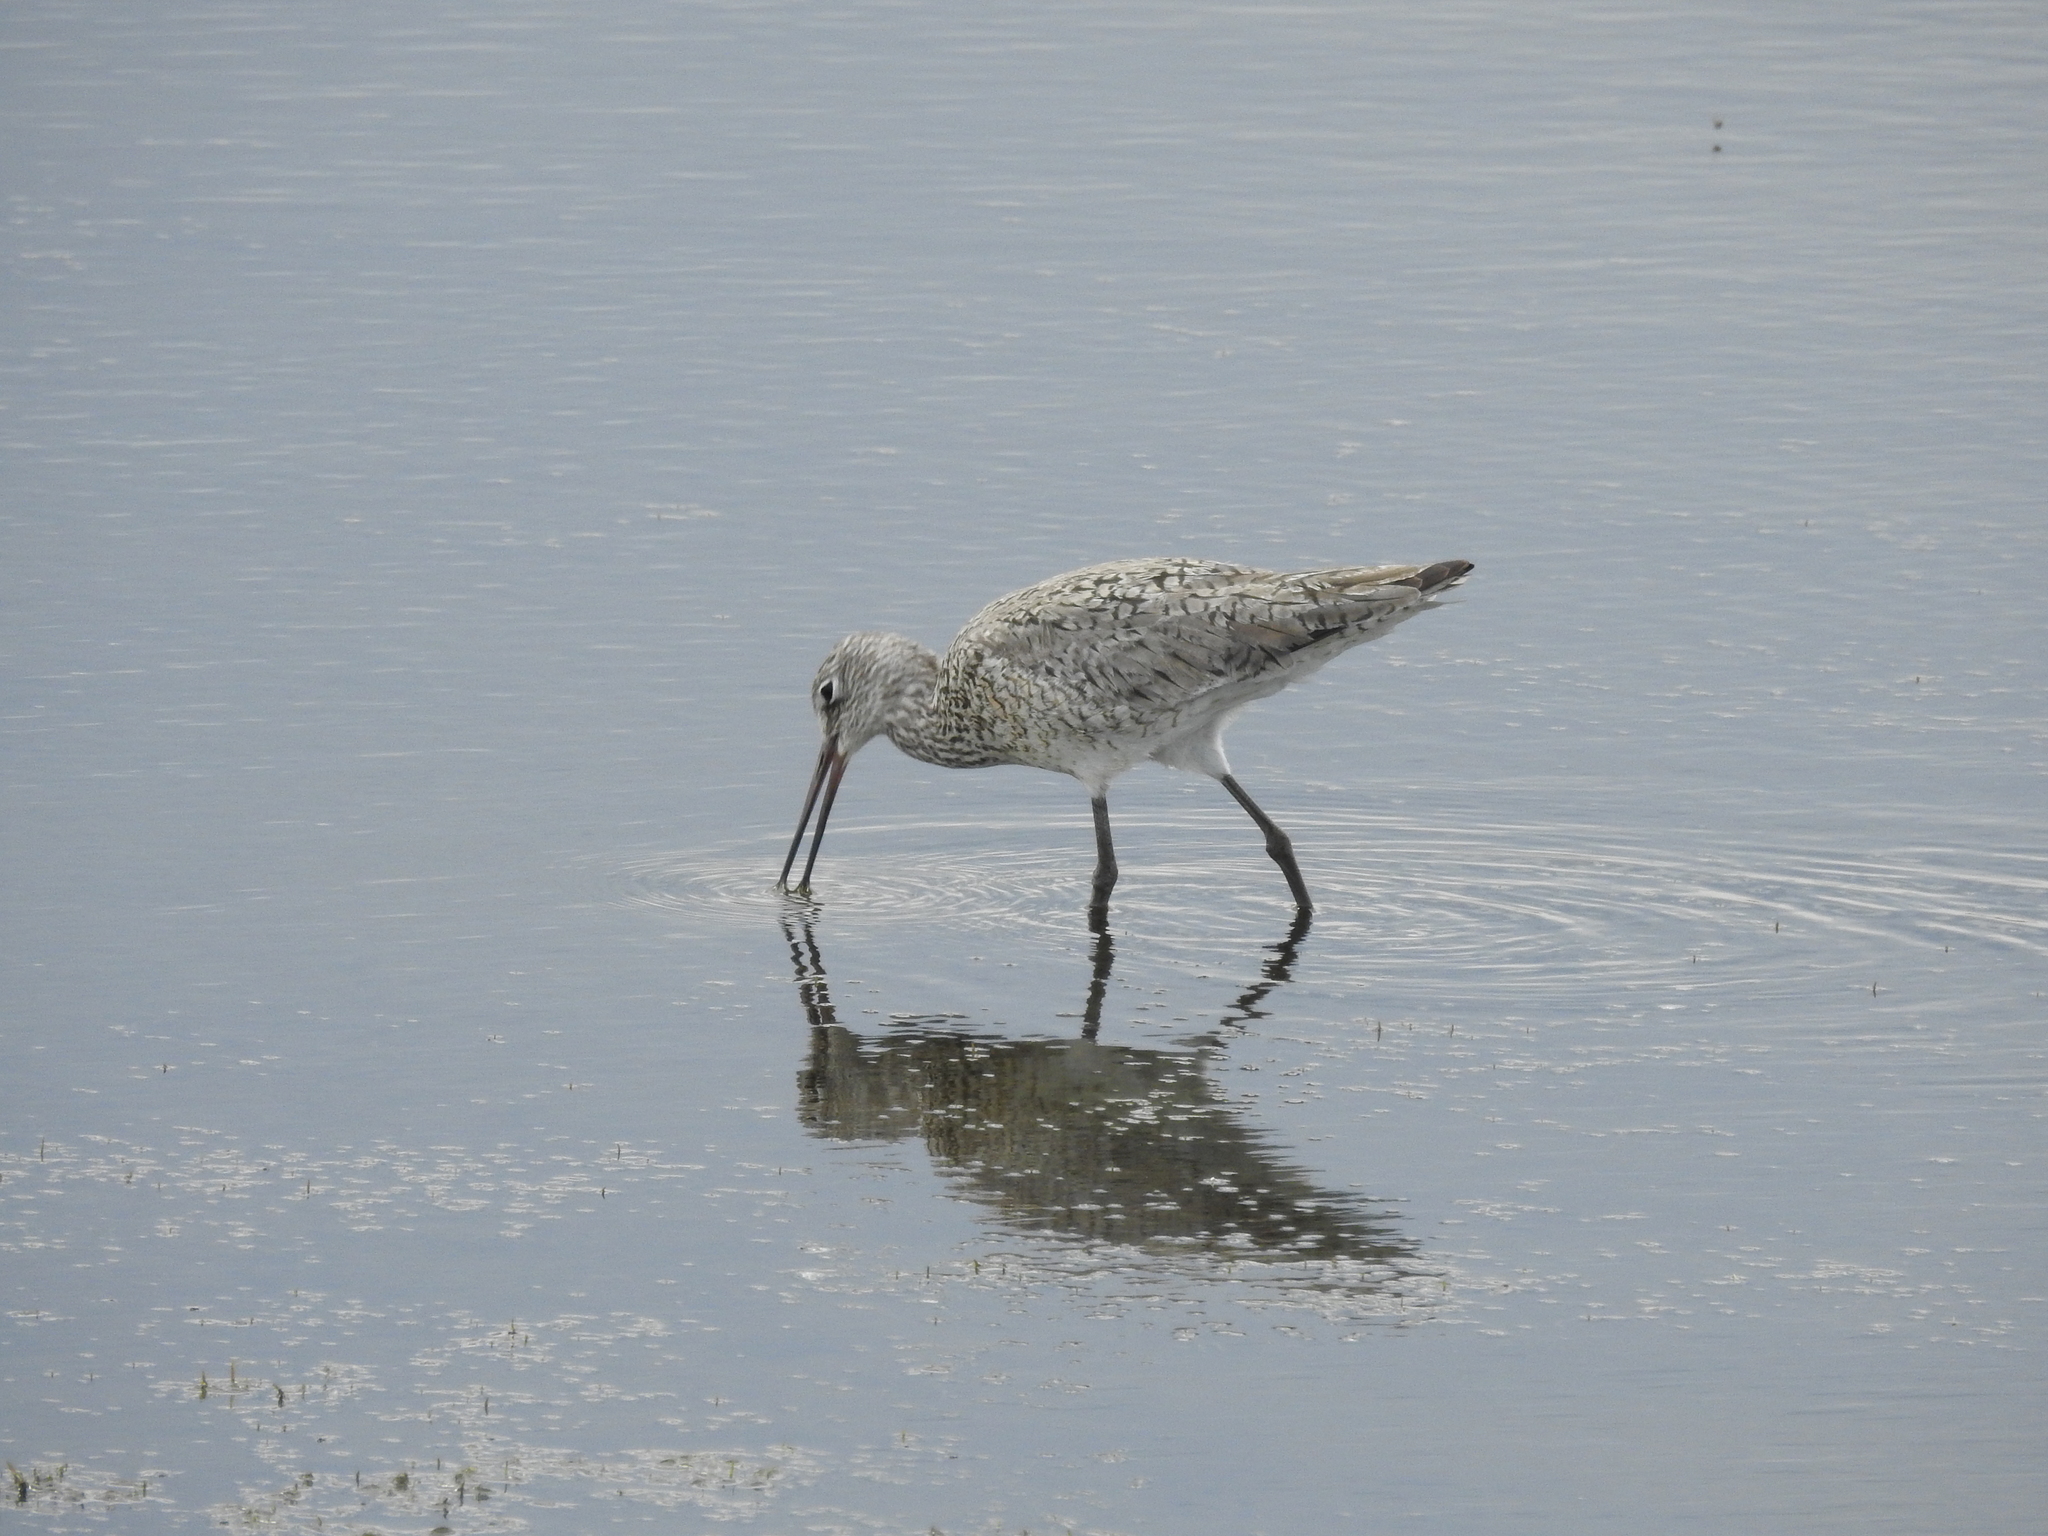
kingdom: Animalia
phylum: Chordata
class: Aves
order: Charadriiformes
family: Scolopacidae
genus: Tringa
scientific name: Tringa semipalmata
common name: Willet
